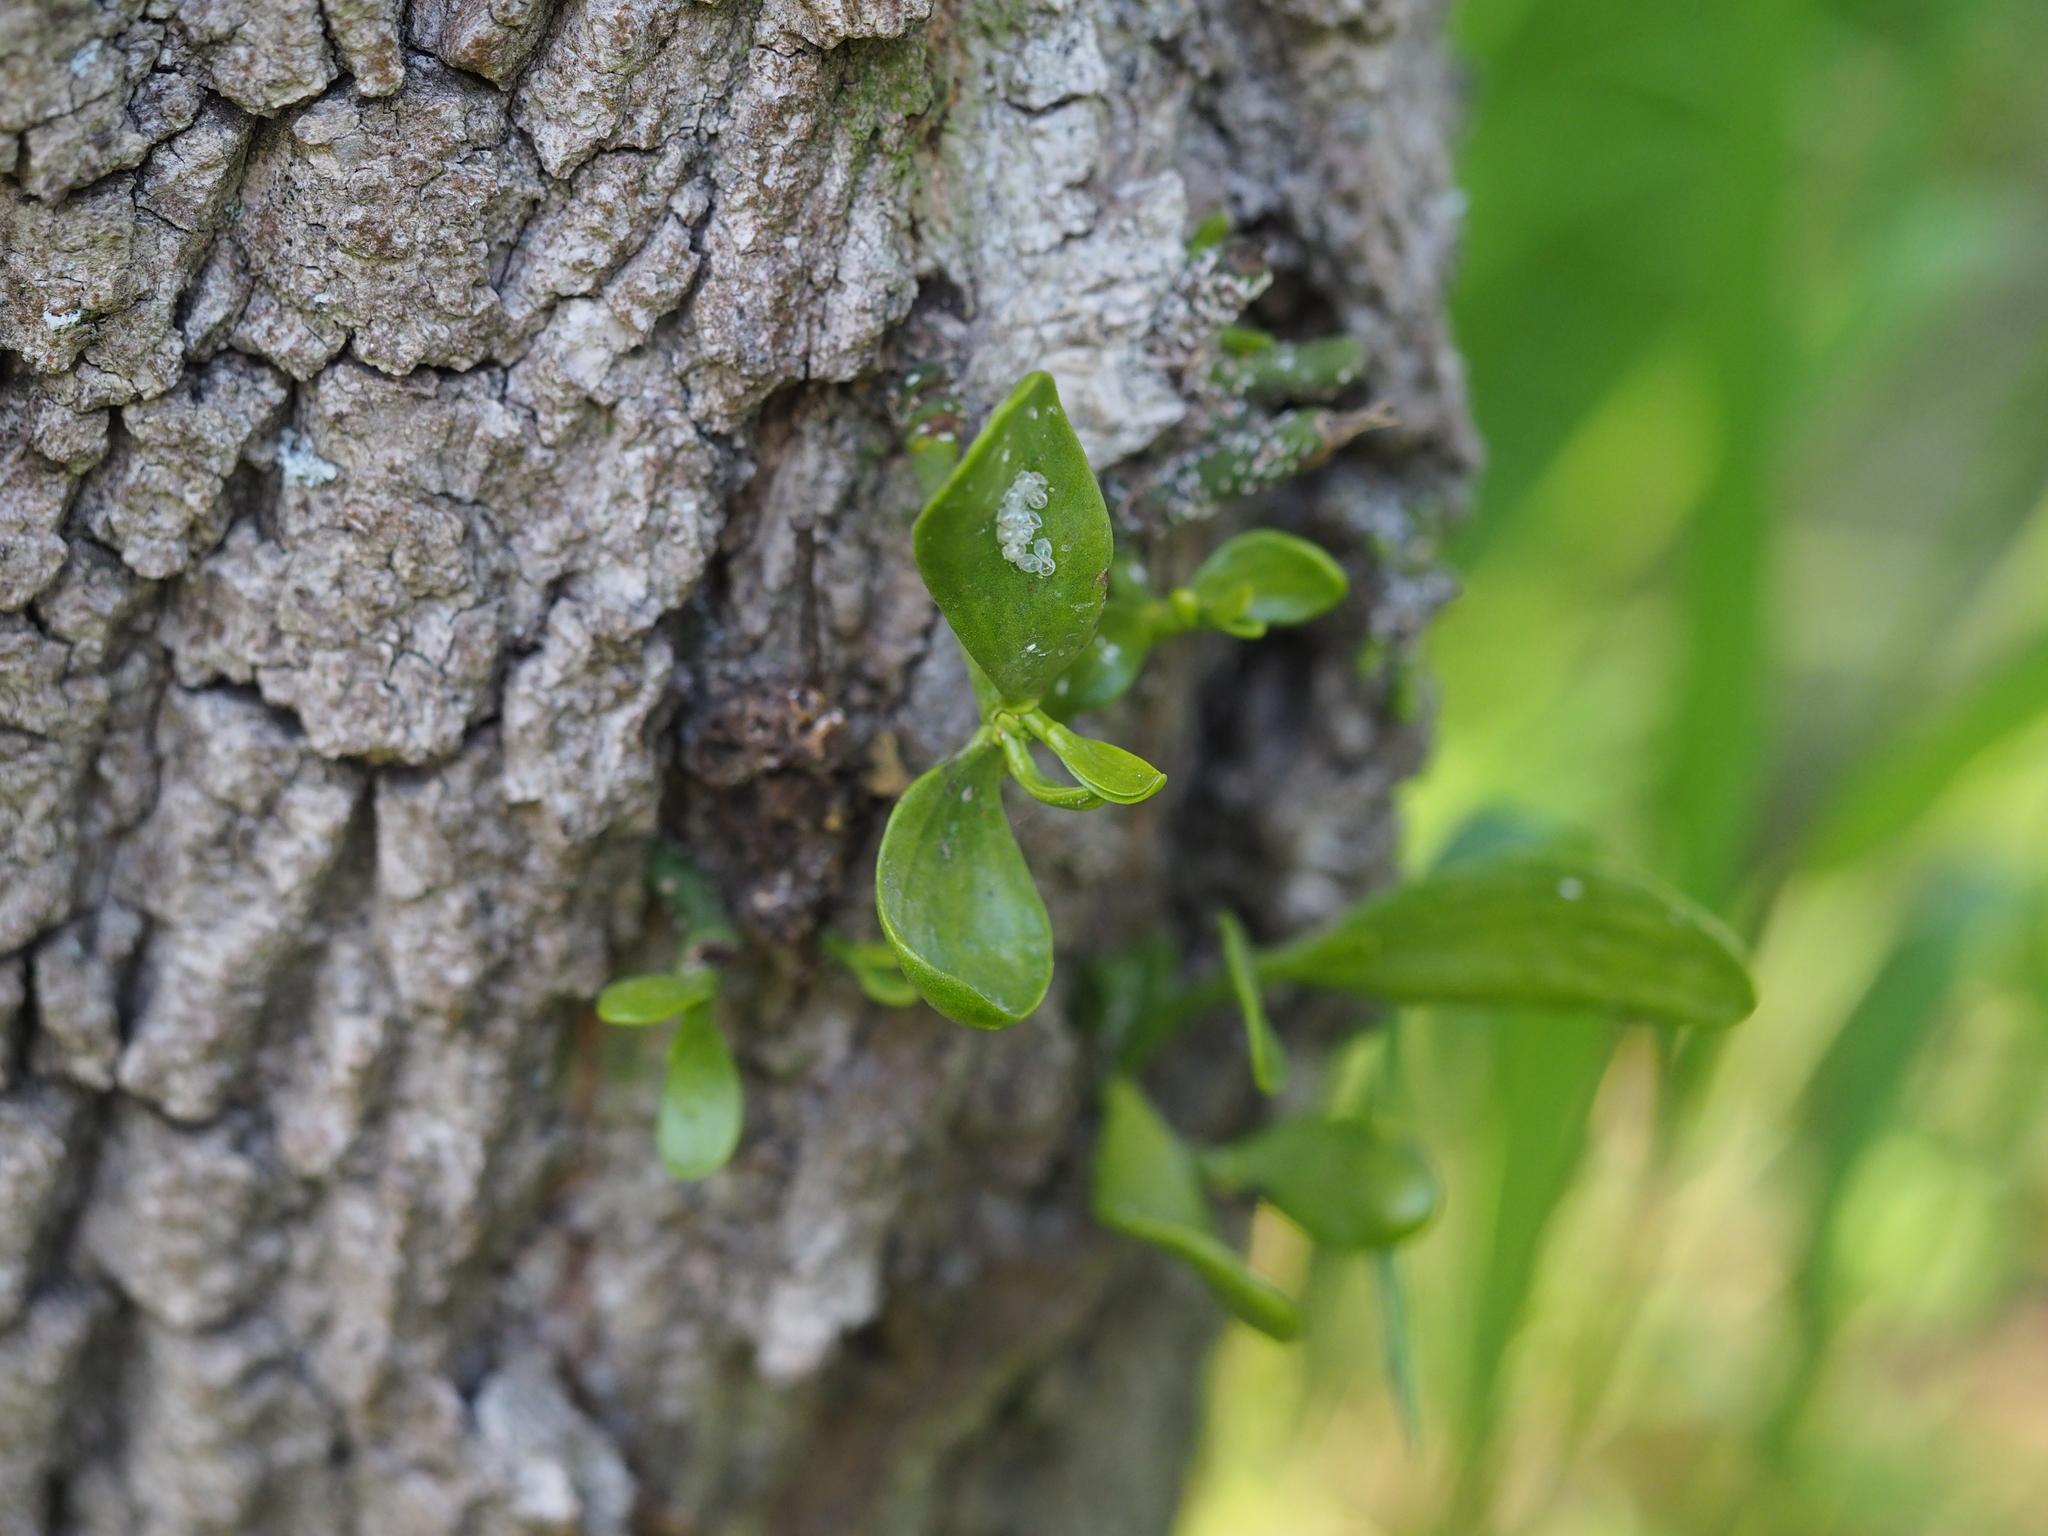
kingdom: Plantae
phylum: Tracheophyta
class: Magnoliopsida
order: Santalales
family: Viscaceae
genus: Viscum
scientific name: Viscum album
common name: Mistletoe
